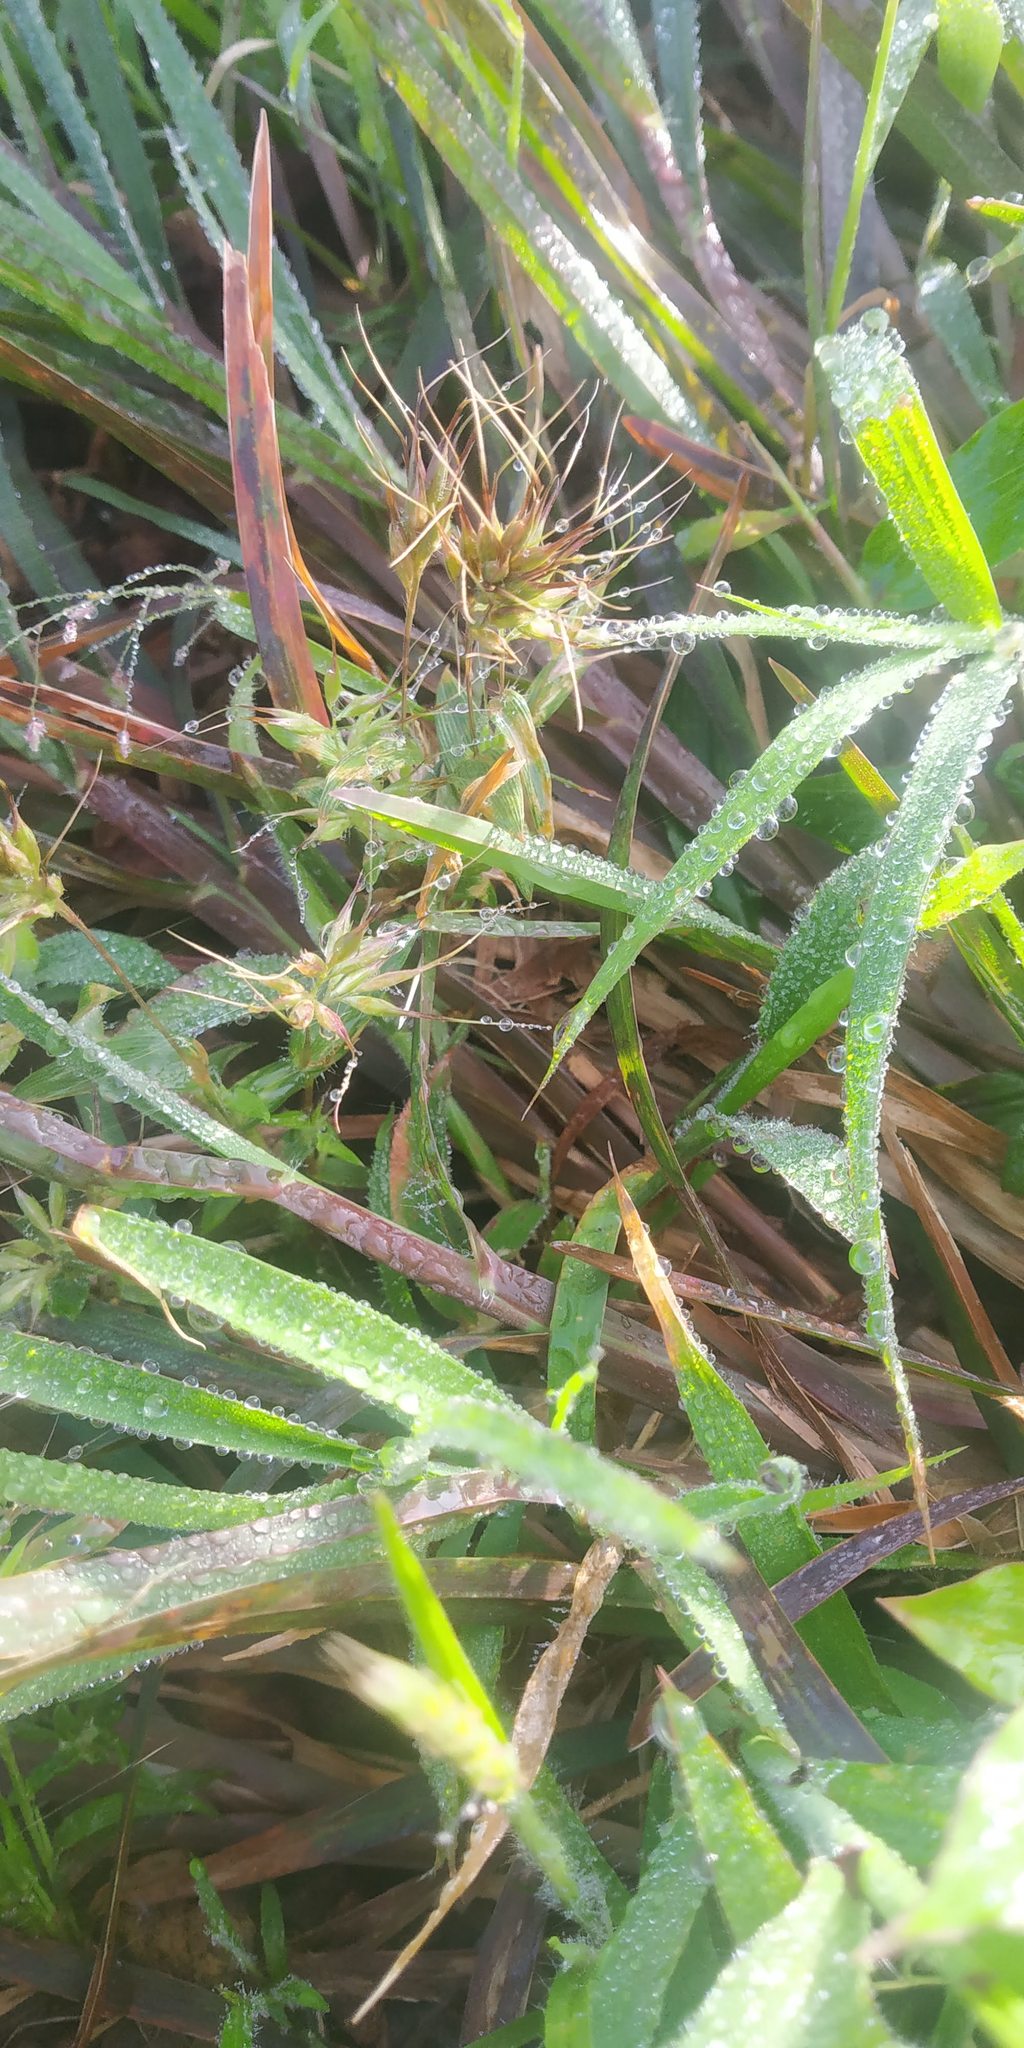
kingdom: Plantae
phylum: Tracheophyta
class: Liliopsida
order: Poales
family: Poaceae
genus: Jansenella
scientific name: Jansenella neglecta
